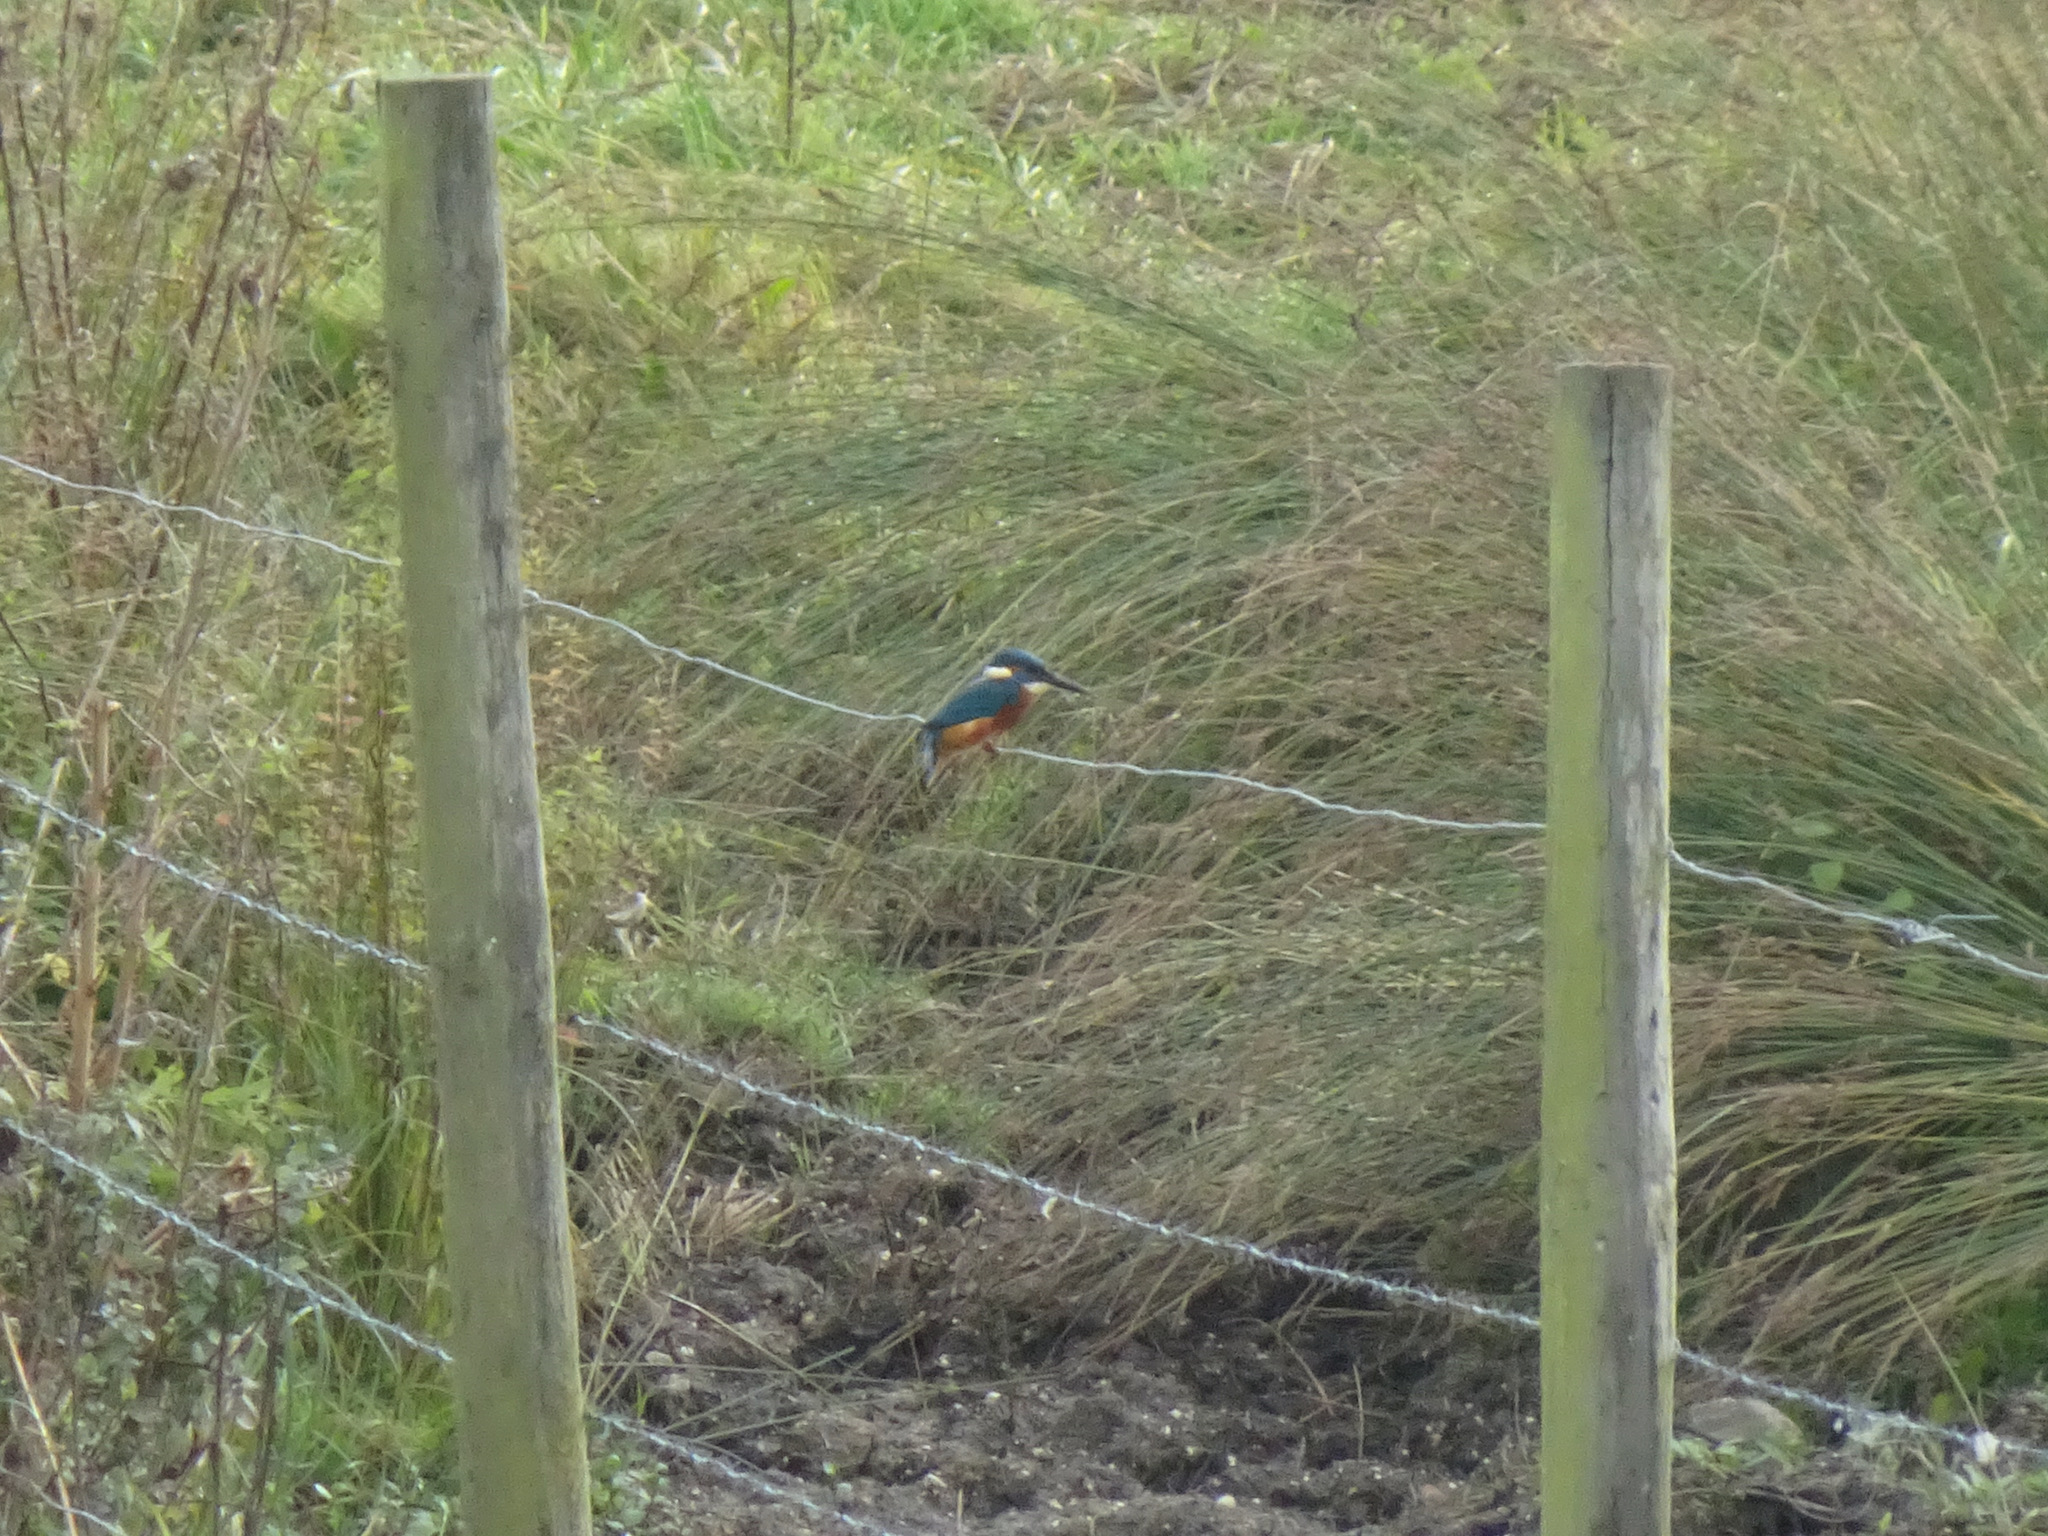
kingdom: Animalia
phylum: Chordata
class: Aves
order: Coraciiformes
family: Alcedinidae
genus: Alcedo
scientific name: Alcedo atthis
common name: Common kingfisher
